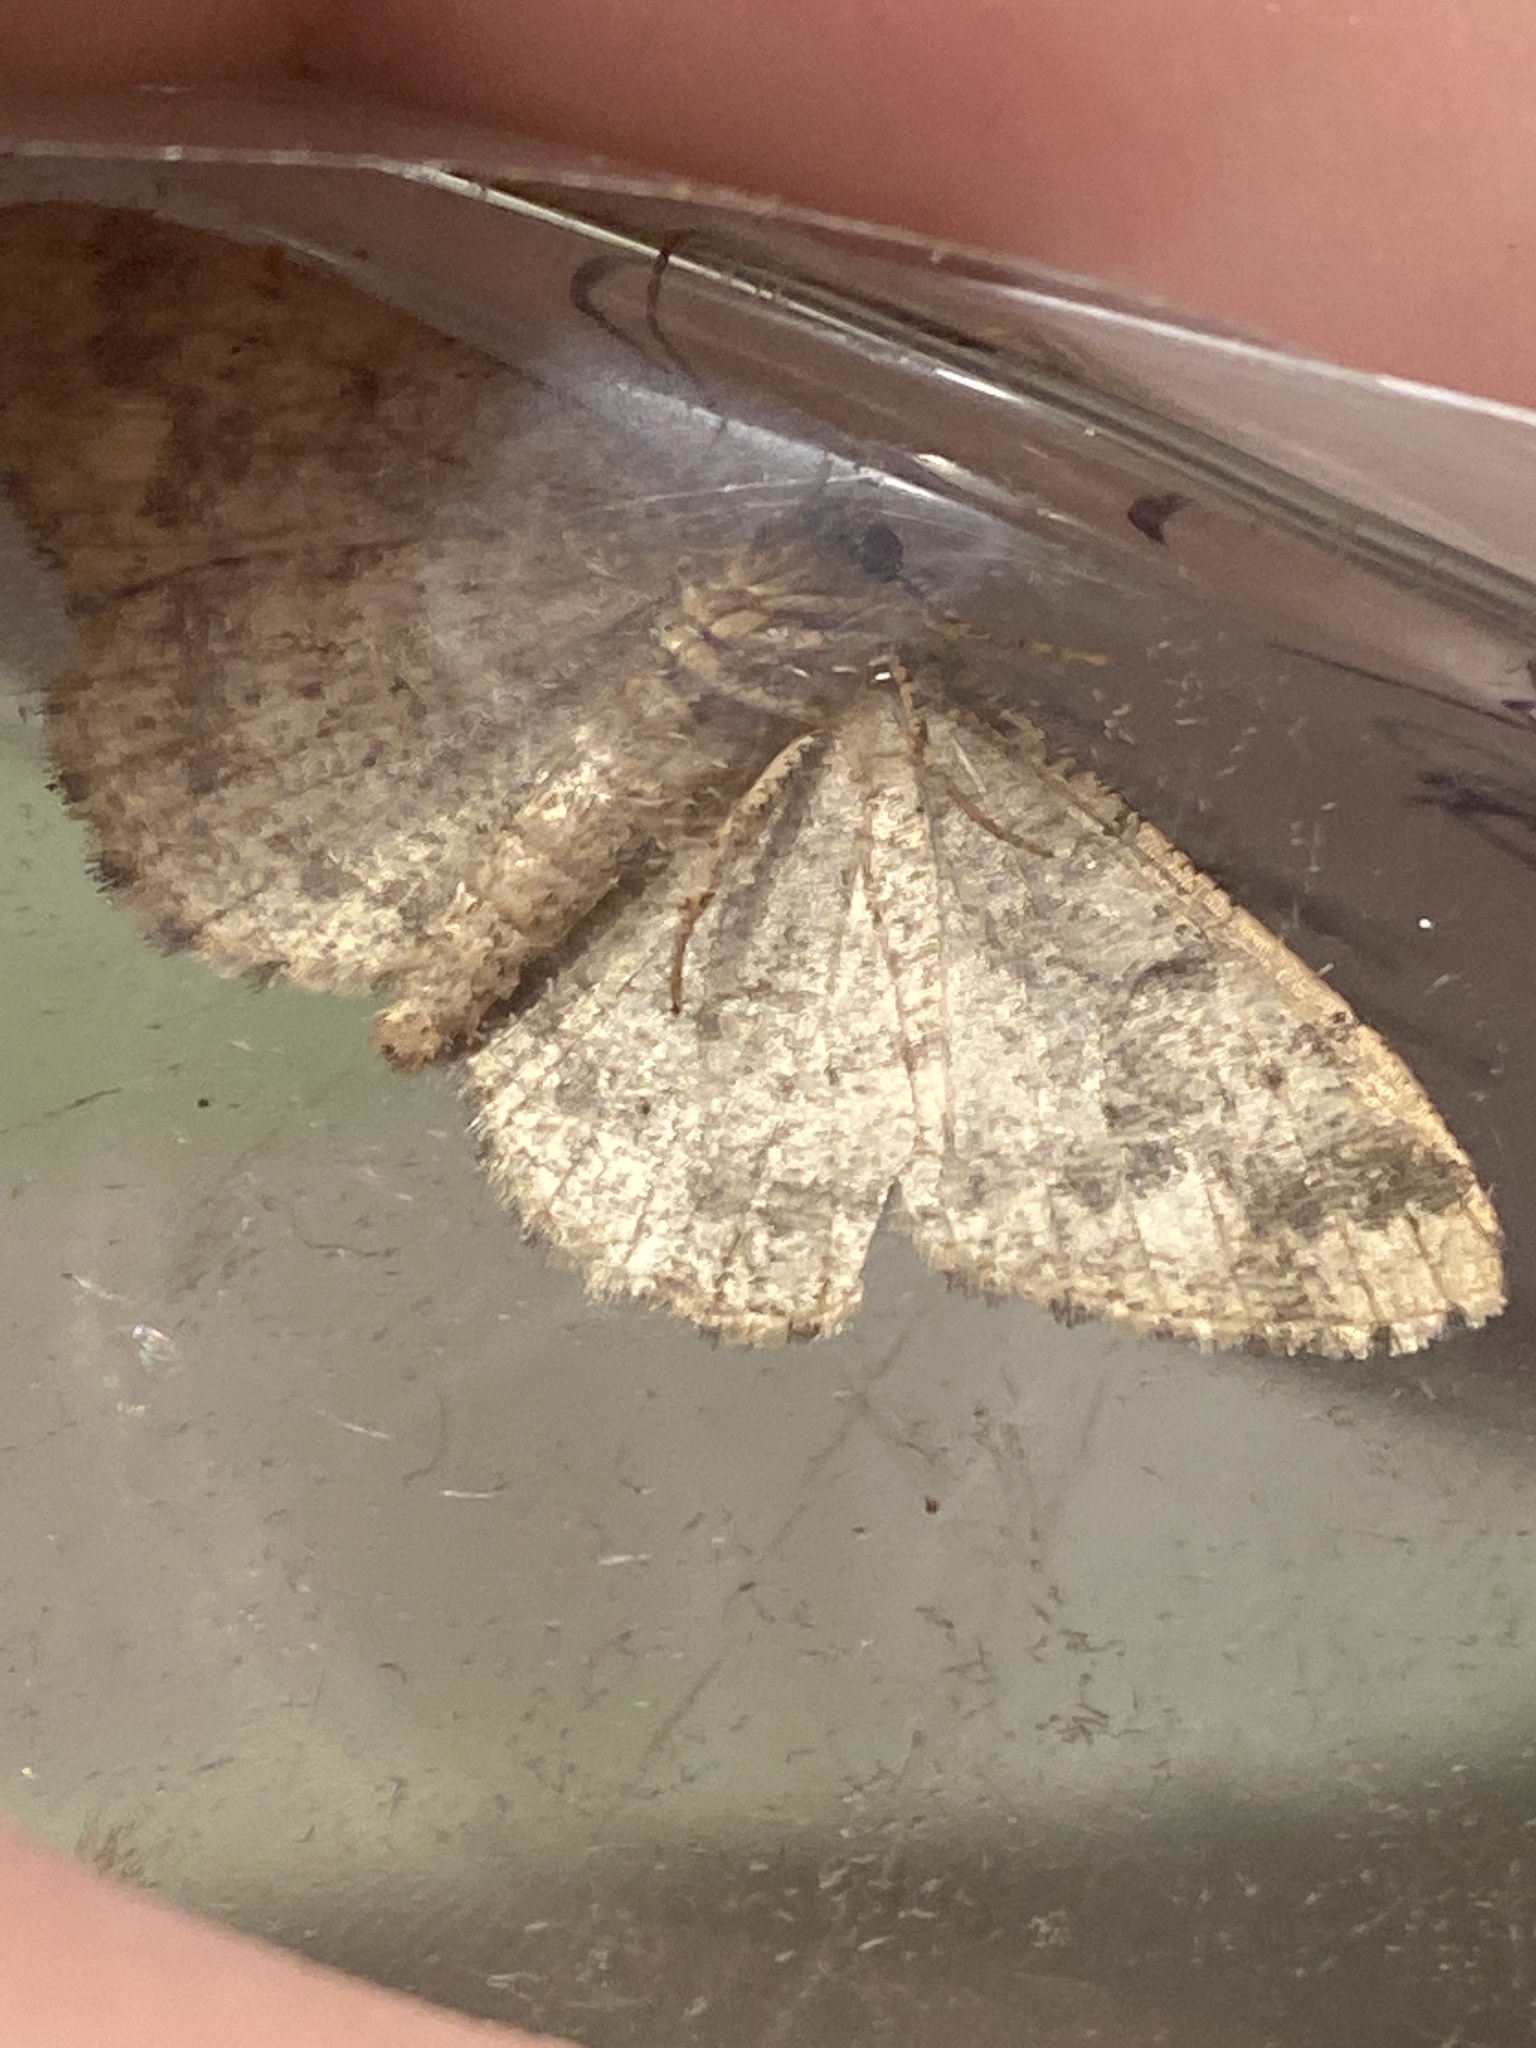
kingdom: Animalia
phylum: Arthropoda
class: Insecta
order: Lepidoptera
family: Geometridae
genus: Parectropis
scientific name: Parectropis similaria
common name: Brindled white-spot
